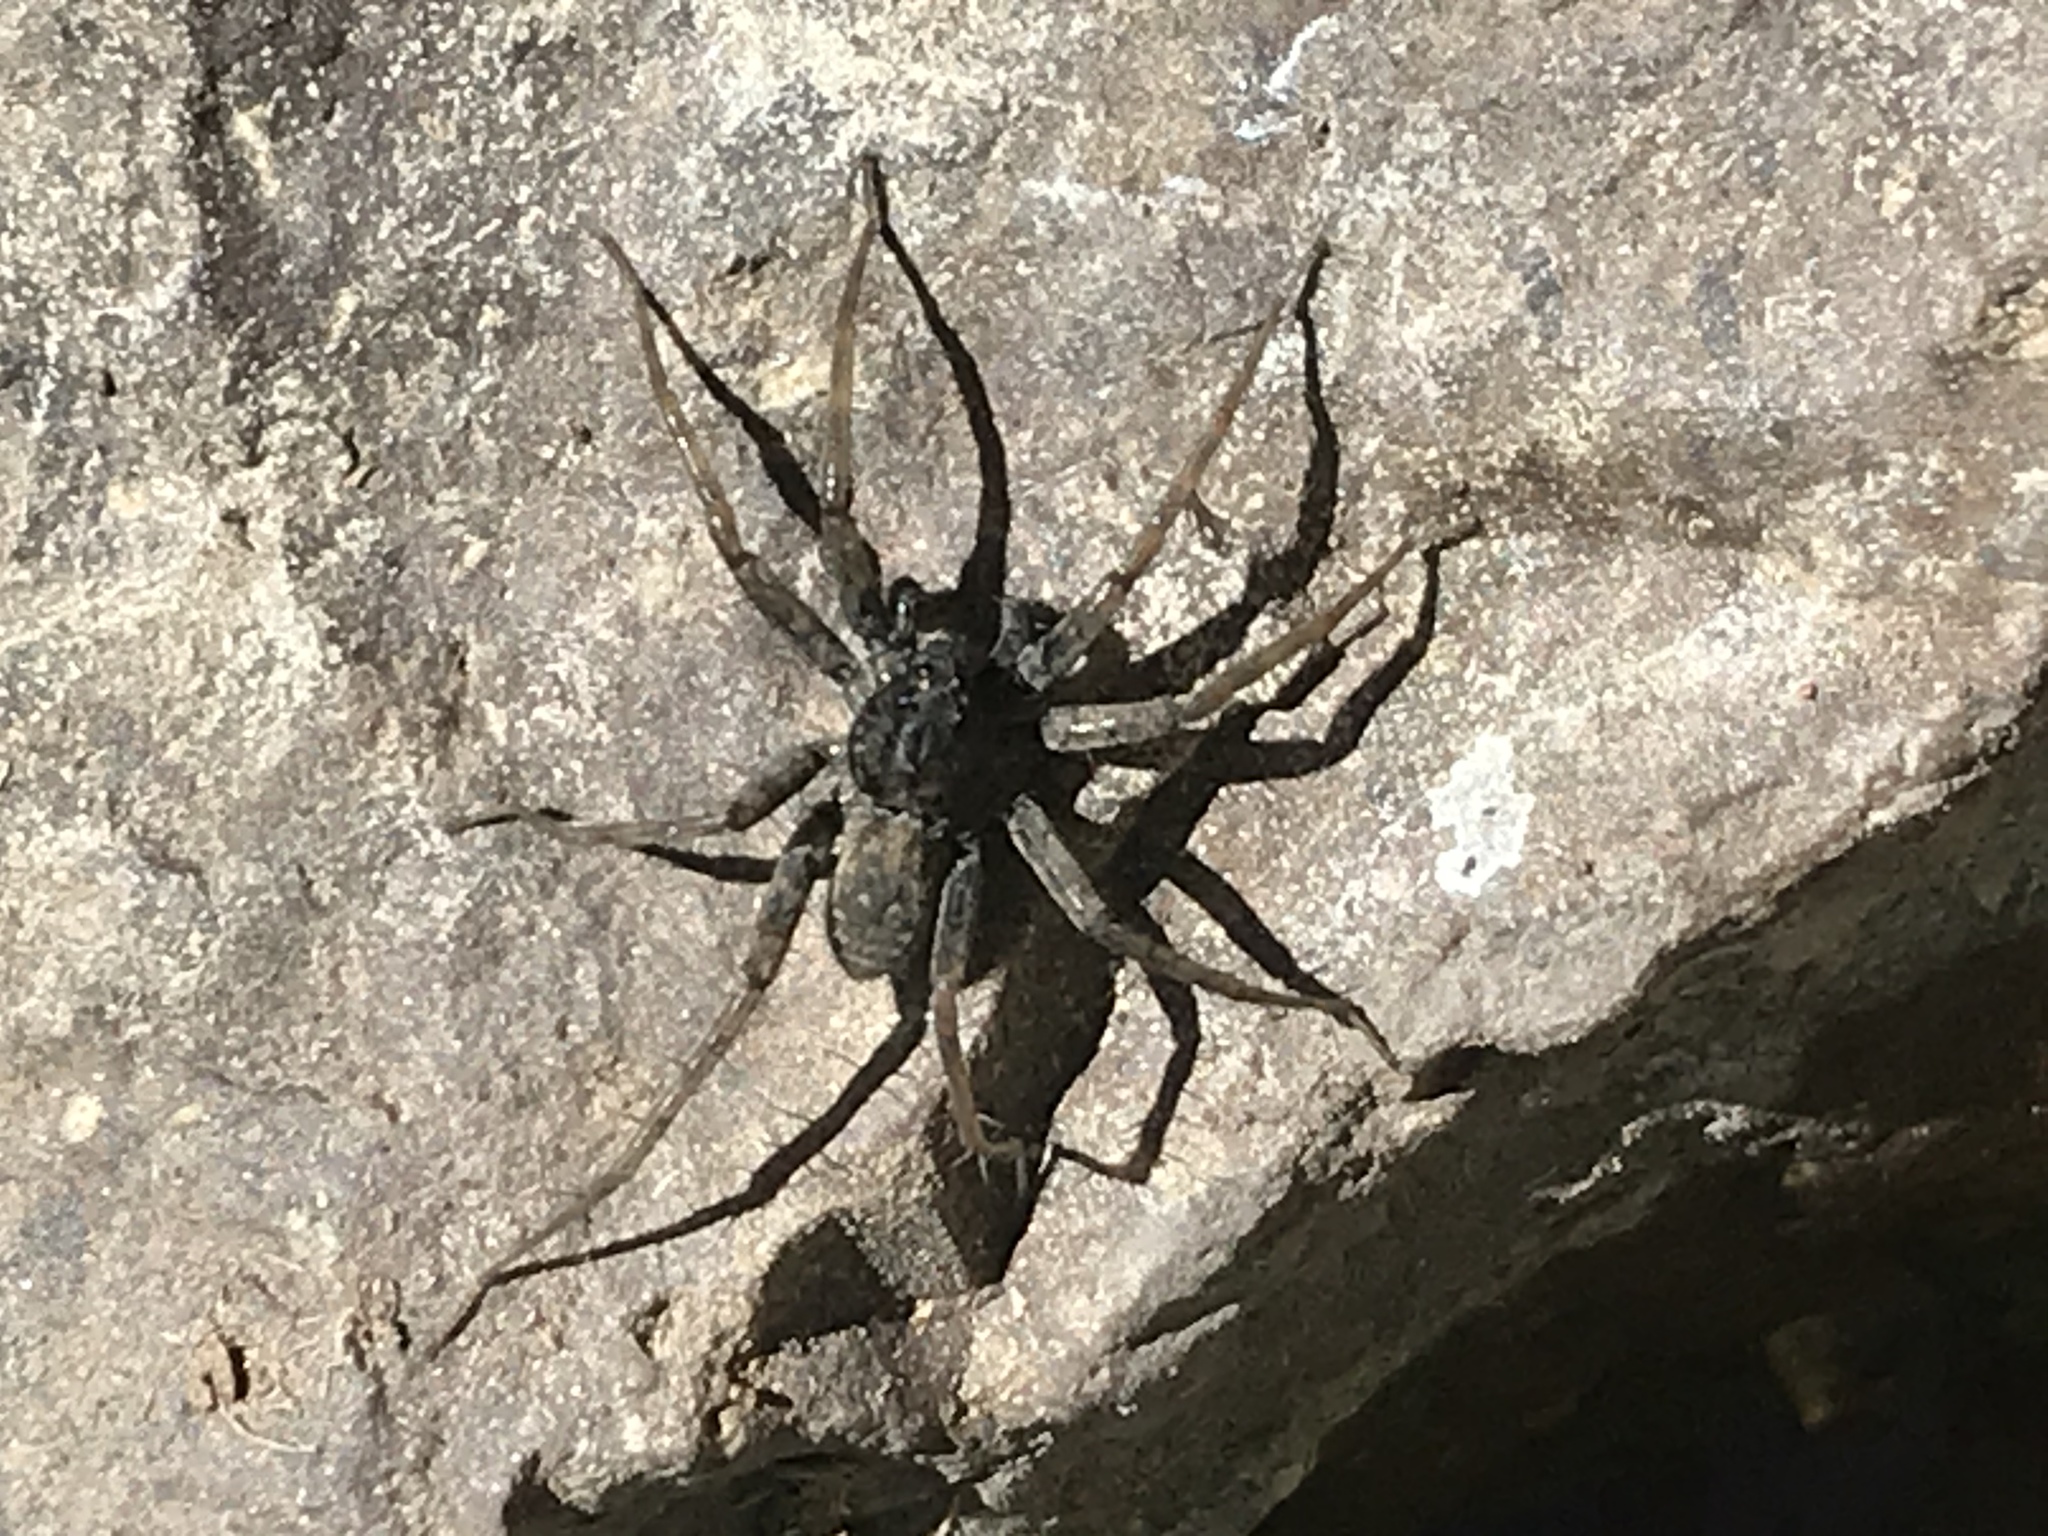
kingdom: Animalia
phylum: Arthropoda
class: Arachnida
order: Araneae
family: Lycosidae
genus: Pardosa
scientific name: Pardosa valens
